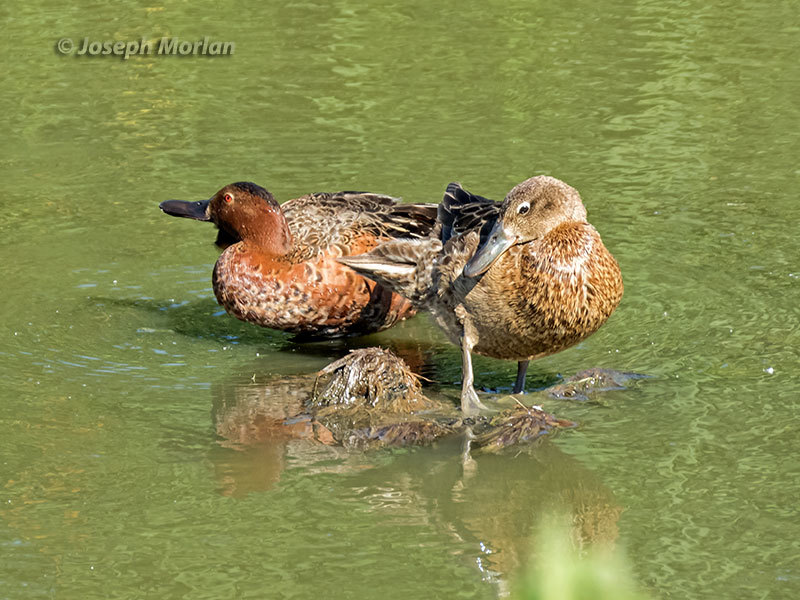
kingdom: Animalia
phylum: Chordata
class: Aves
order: Anseriformes
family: Anatidae
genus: Spatula
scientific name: Spatula cyanoptera
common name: Cinnamon teal
